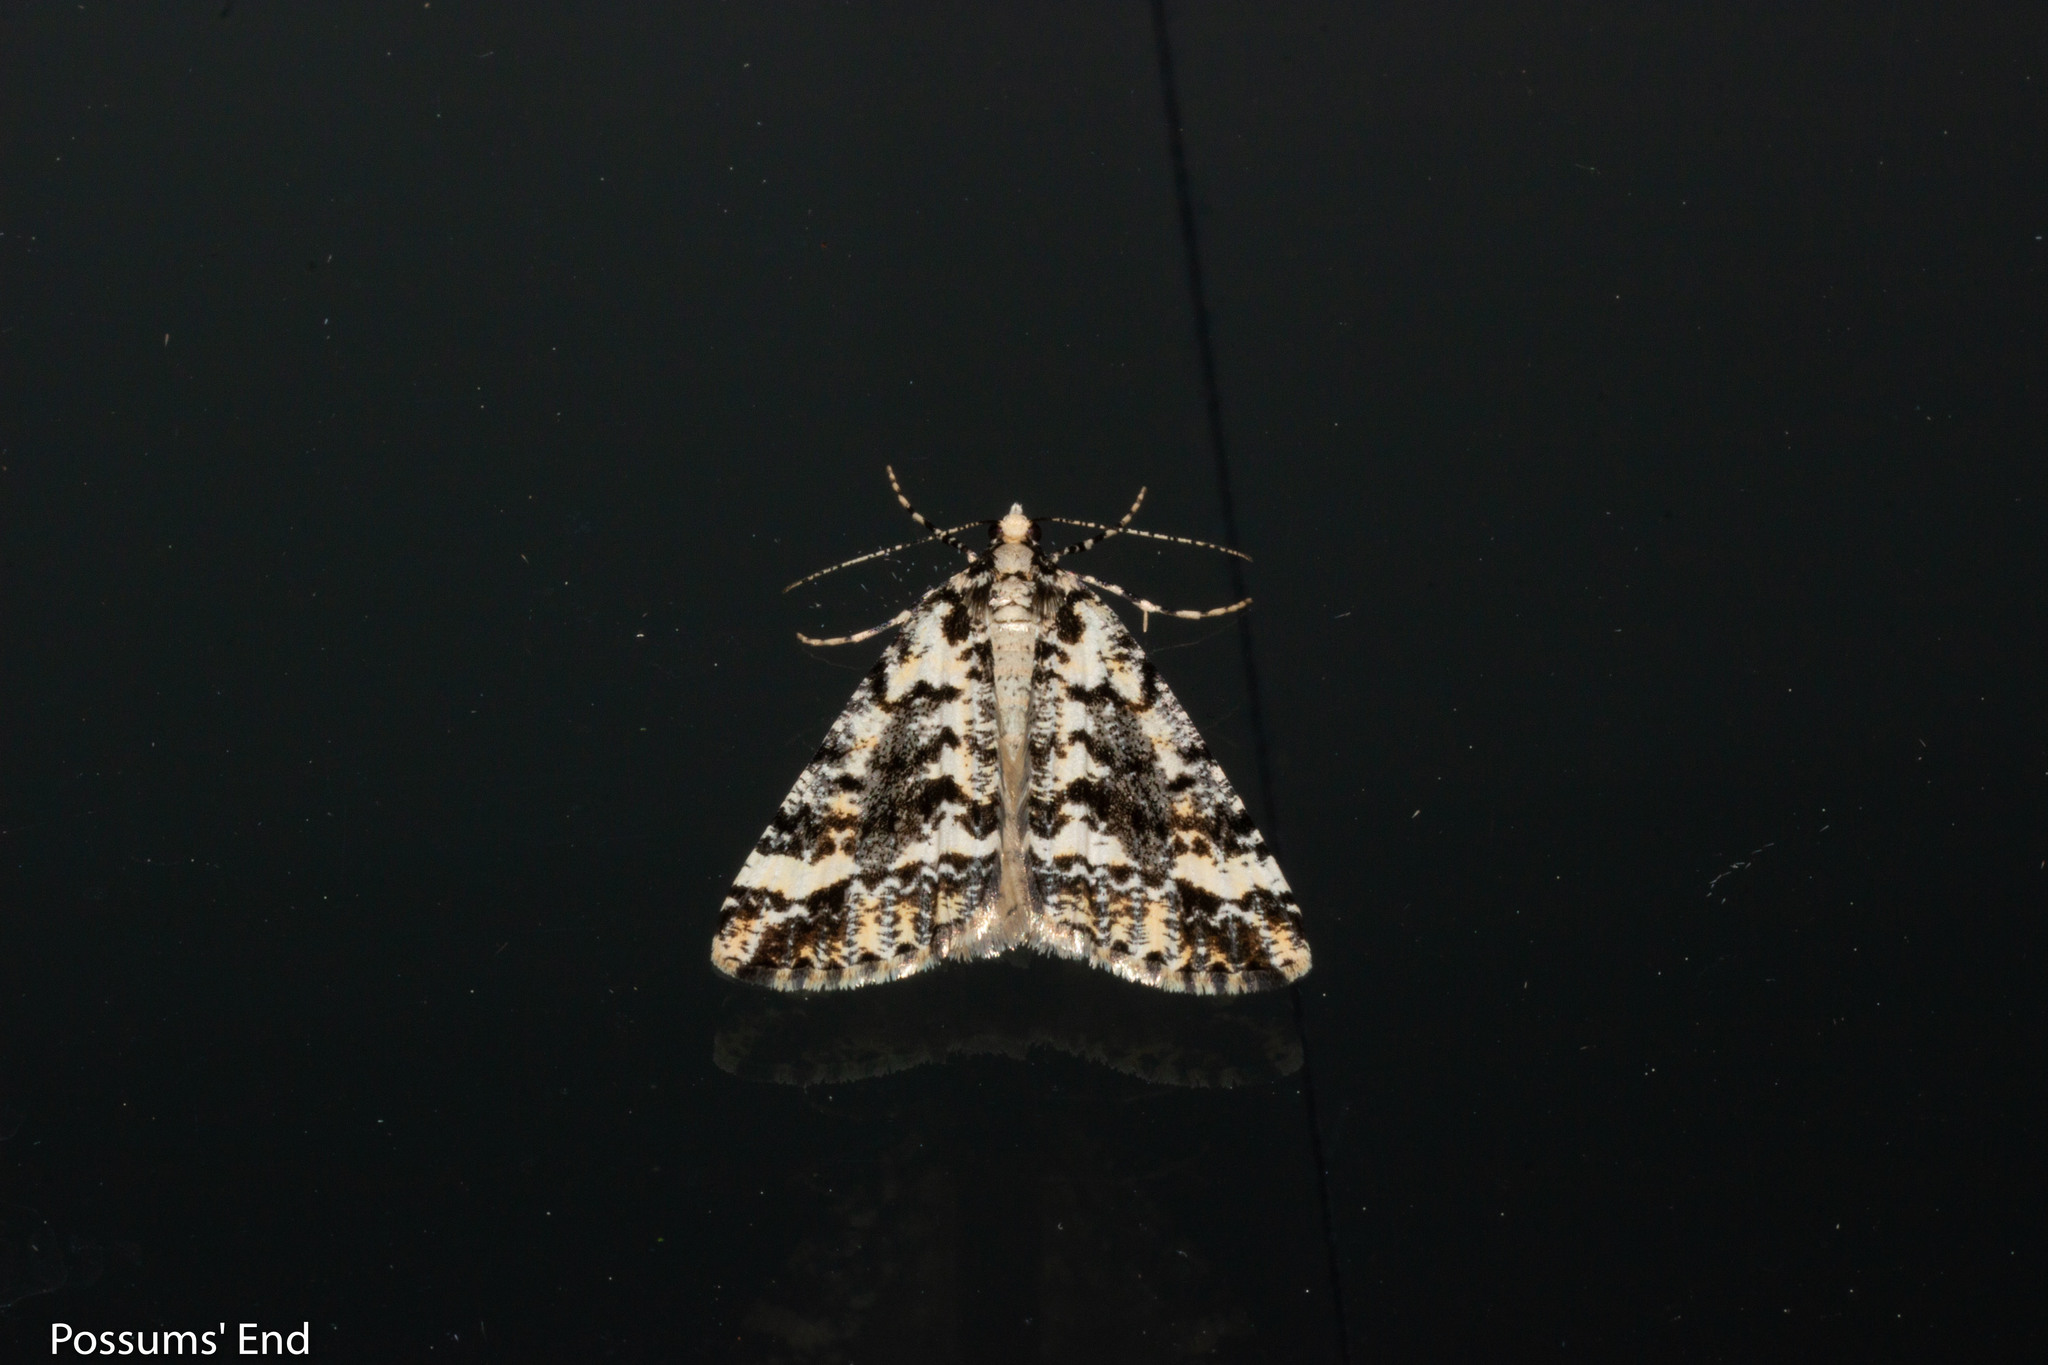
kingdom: Animalia
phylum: Arthropoda
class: Insecta
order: Lepidoptera
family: Geometridae
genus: Pseudocoremia
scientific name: Pseudocoremia leucelaea
